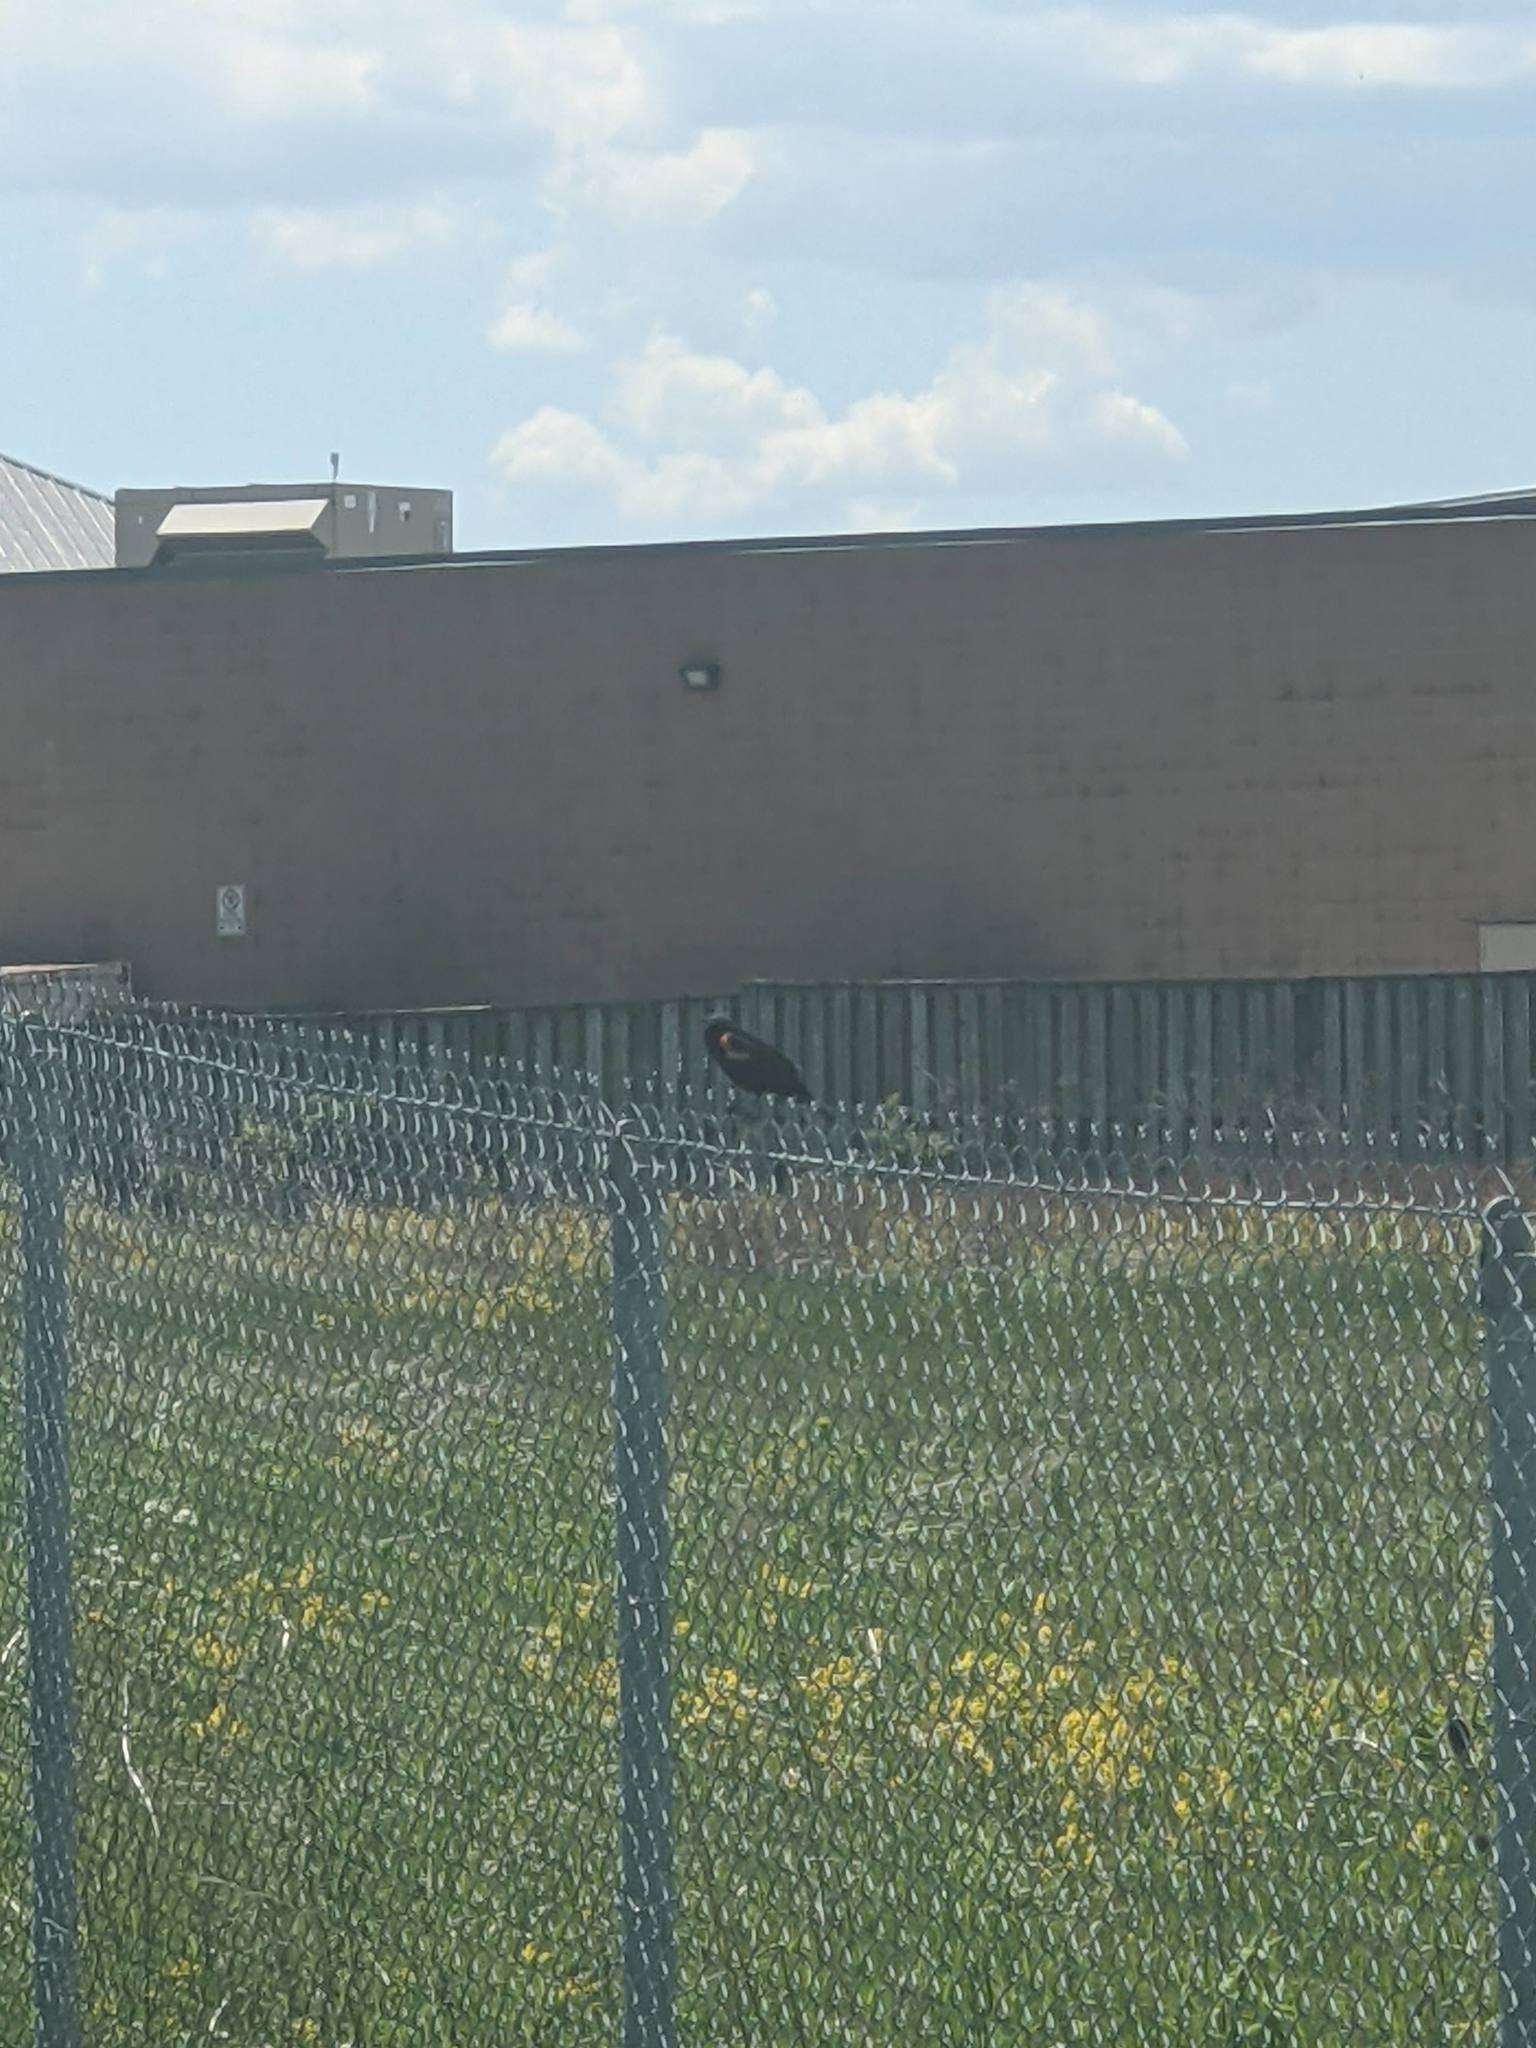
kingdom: Animalia
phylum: Chordata
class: Aves
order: Passeriformes
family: Icteridae
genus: Agelaius
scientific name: Agelaius phoeniceus
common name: Red-winged blackbird
